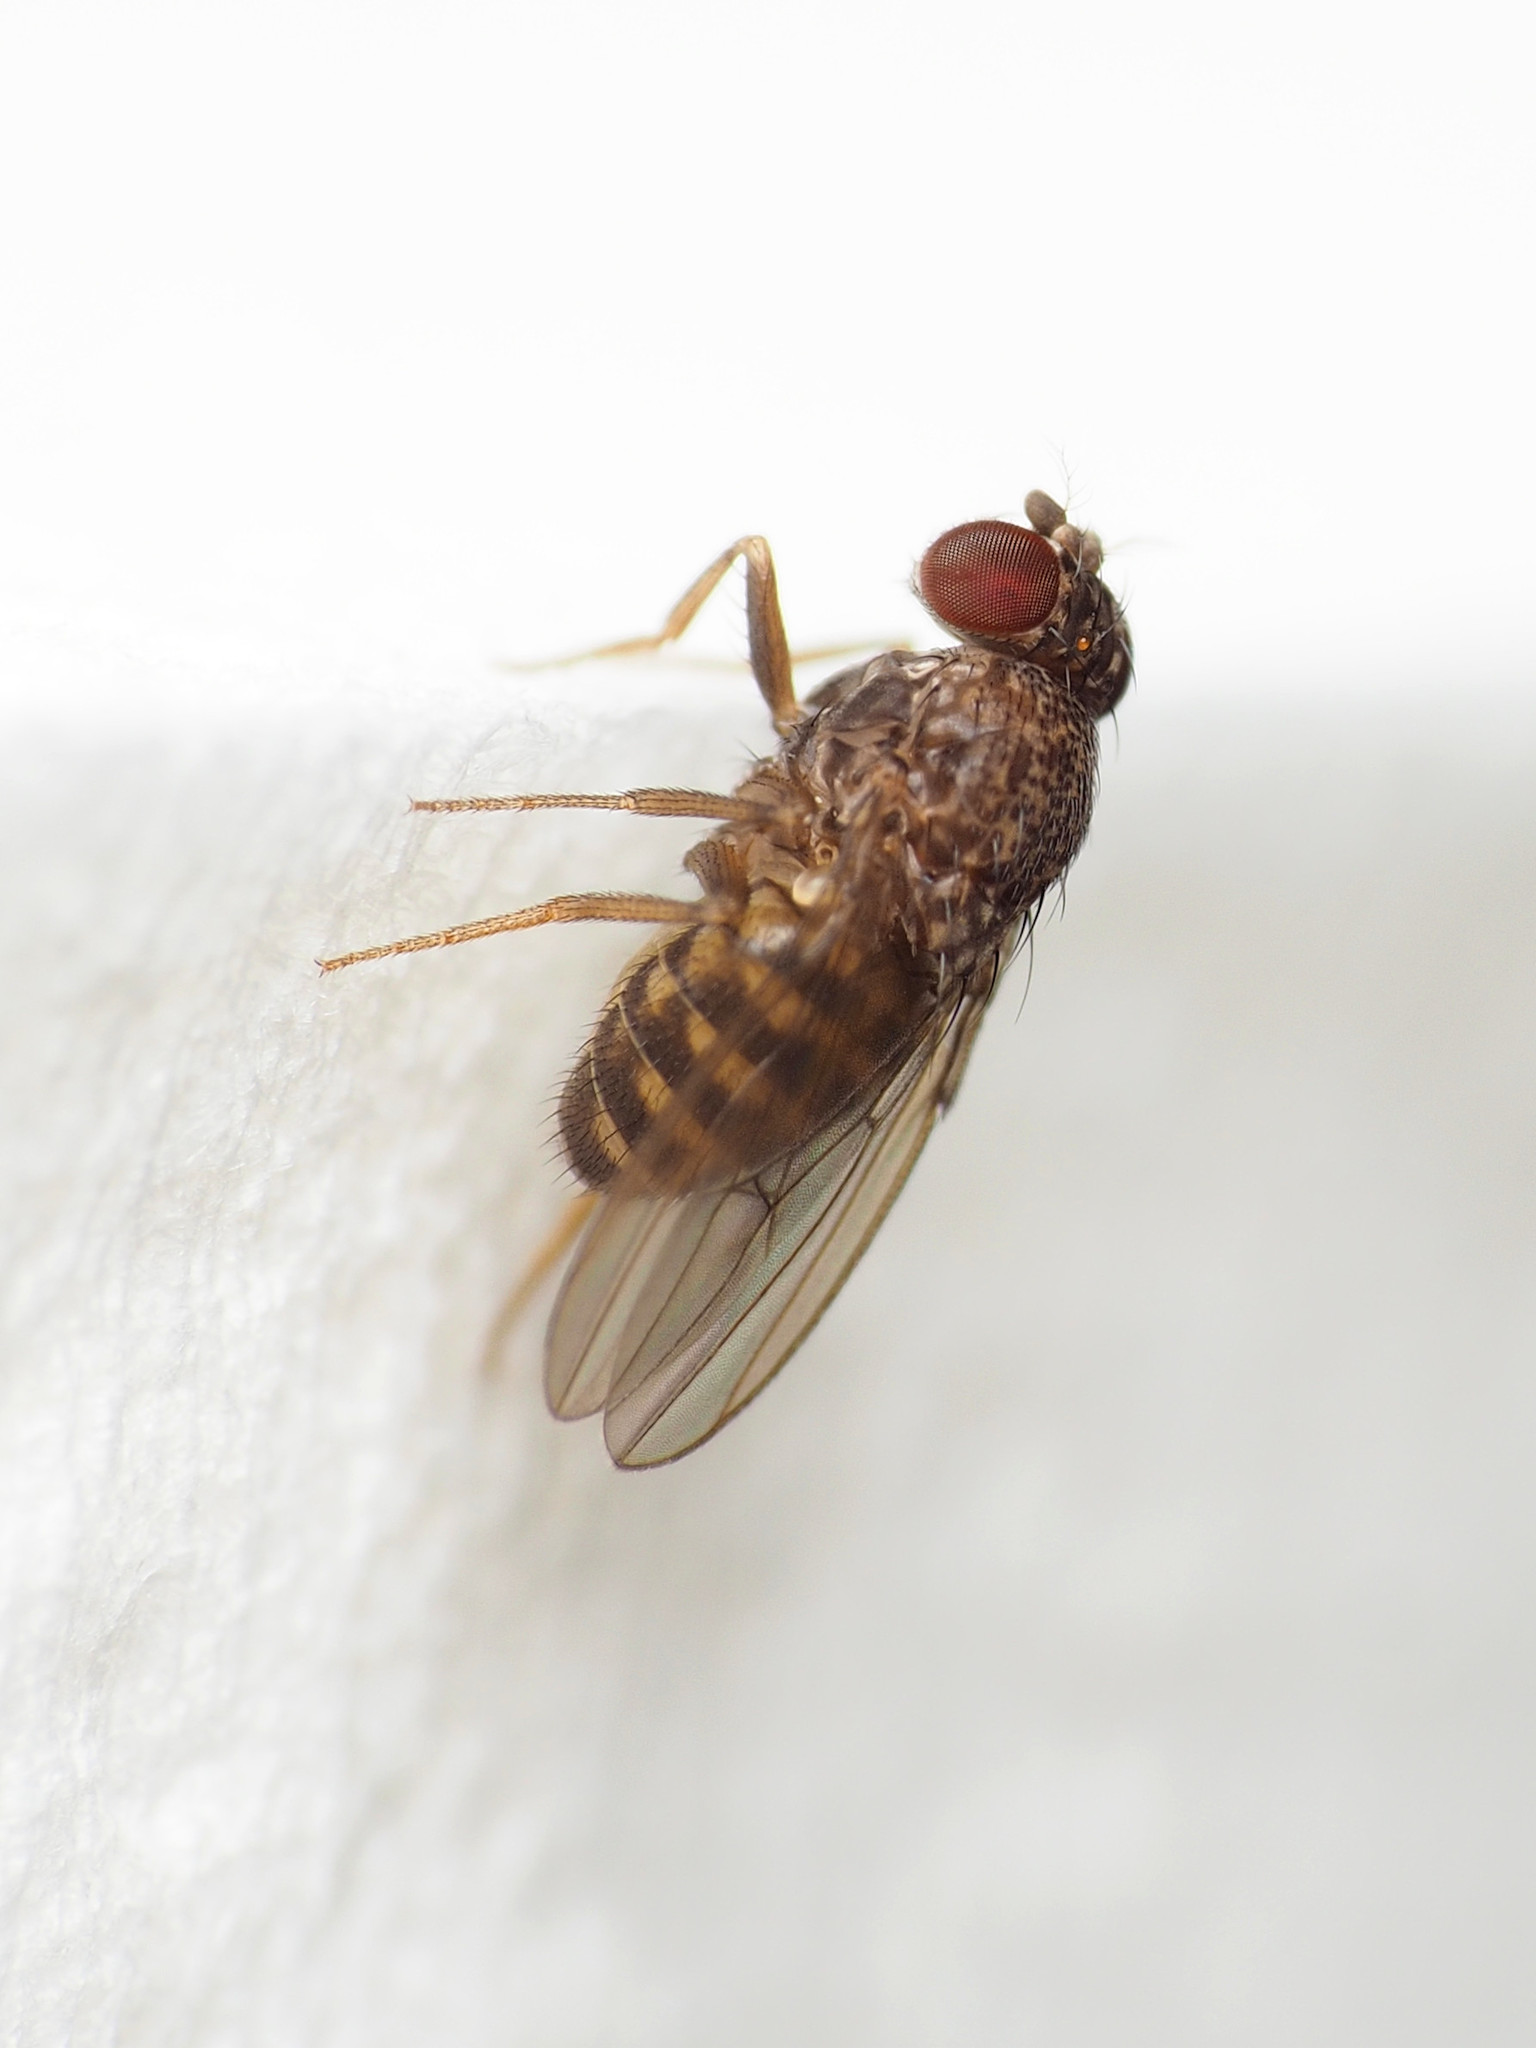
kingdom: Animalia
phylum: Arthropoda
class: Insecta
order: Diptera
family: Drosophilidae
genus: Drosophila
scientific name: Drosophila repleta
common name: Pomace fly
